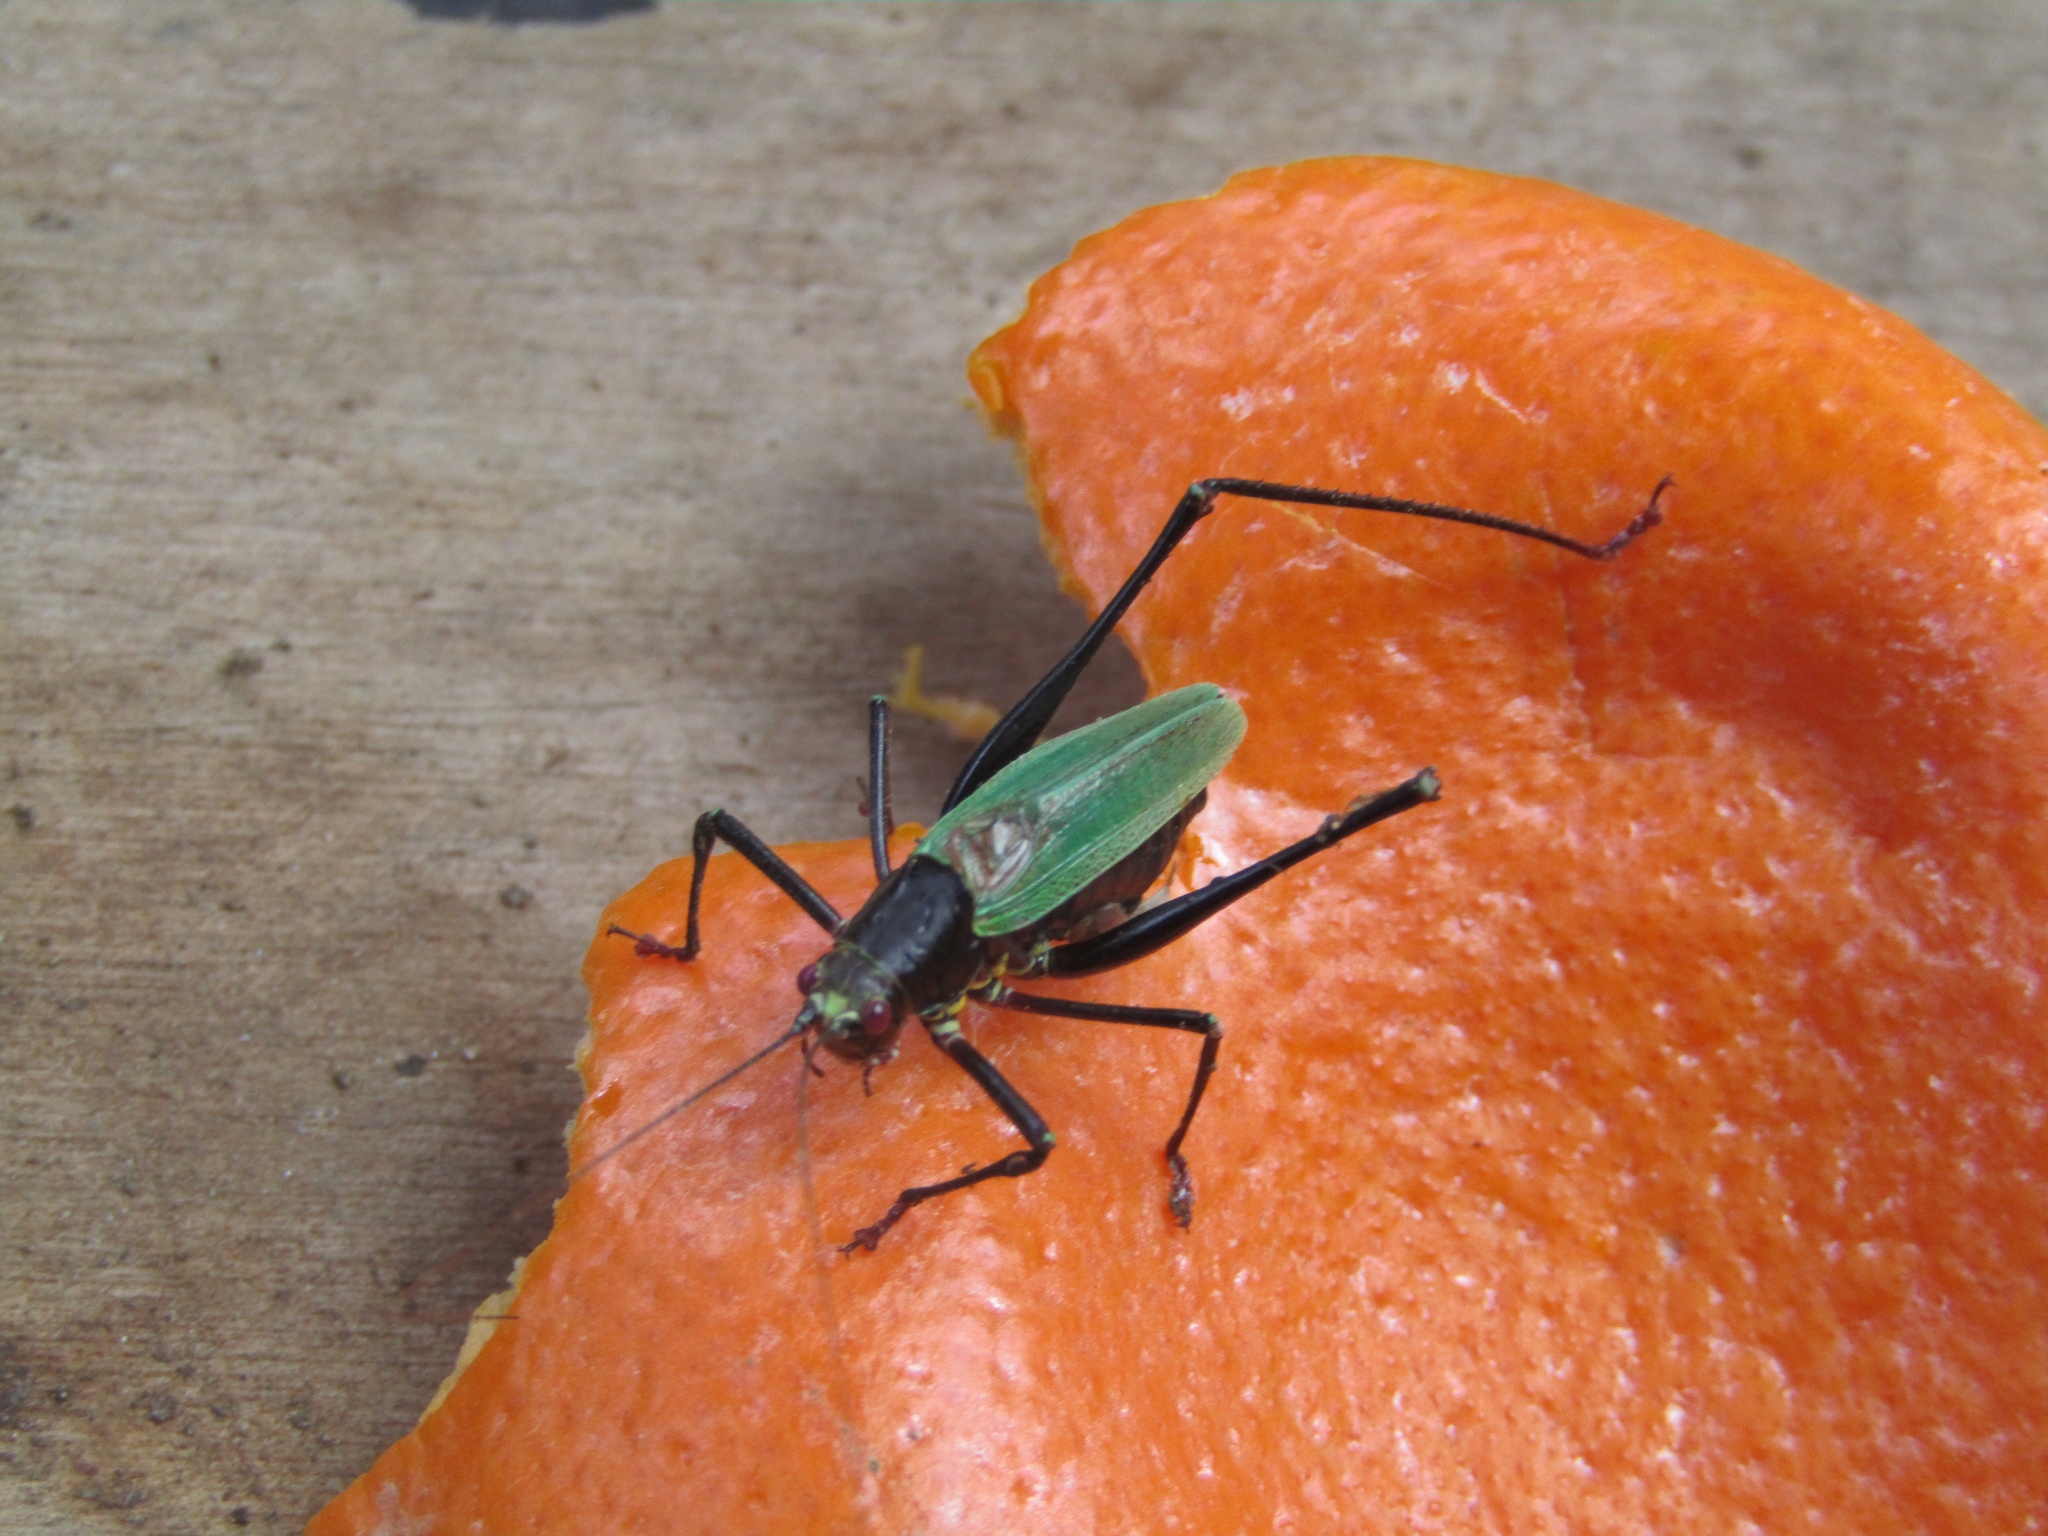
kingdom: Animalia
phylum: Arthropoda
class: Insecta
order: Orthoptera
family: Tettigoniidae
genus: Stenophyllia
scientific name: Stenophyllia modesta
